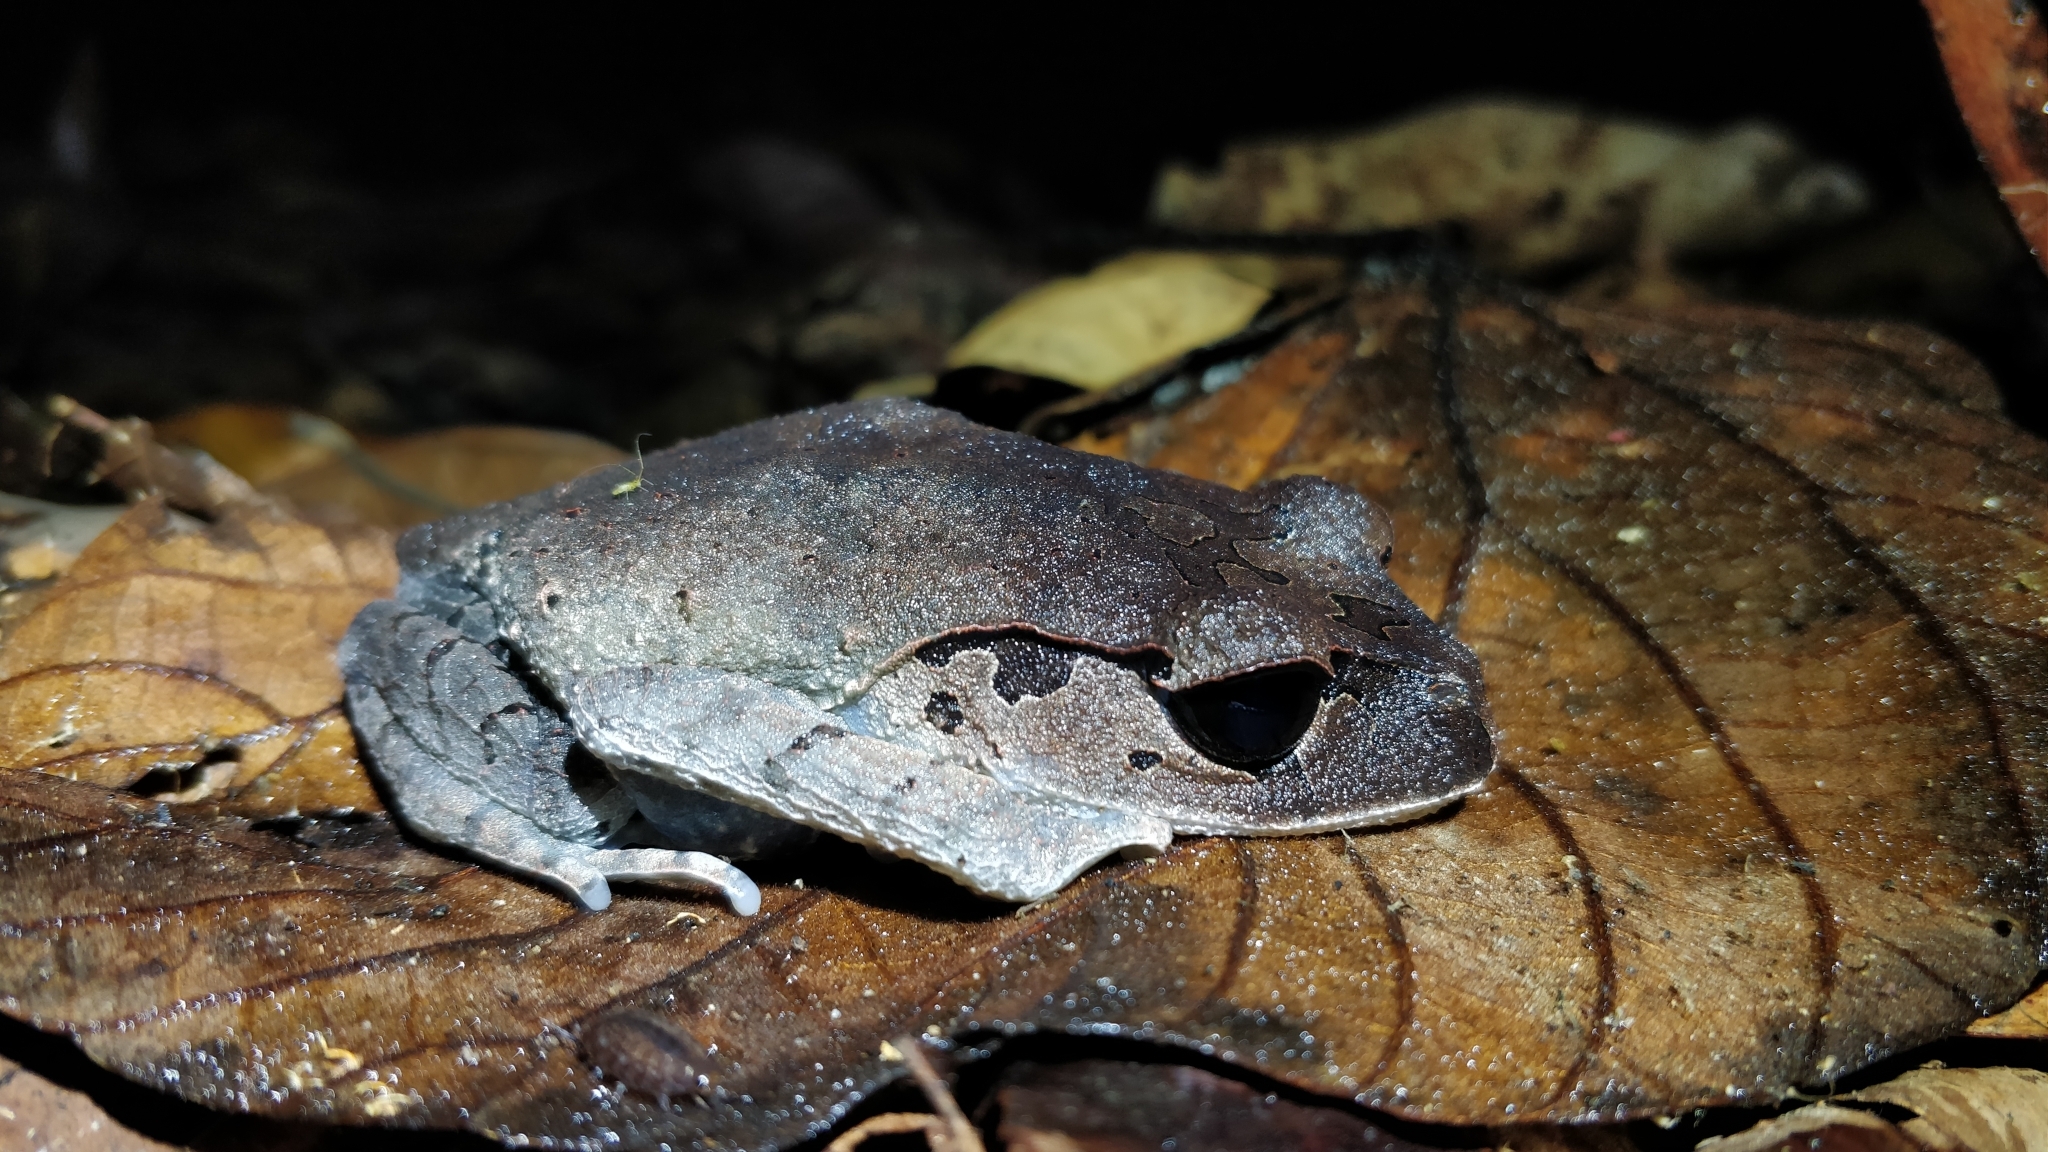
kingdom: Animalia
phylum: Chordata
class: Amphibia
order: Anura
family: Megophryidae
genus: Leptobrachium
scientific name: Leptobrachium abbotti
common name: Abbott’s litter frog
